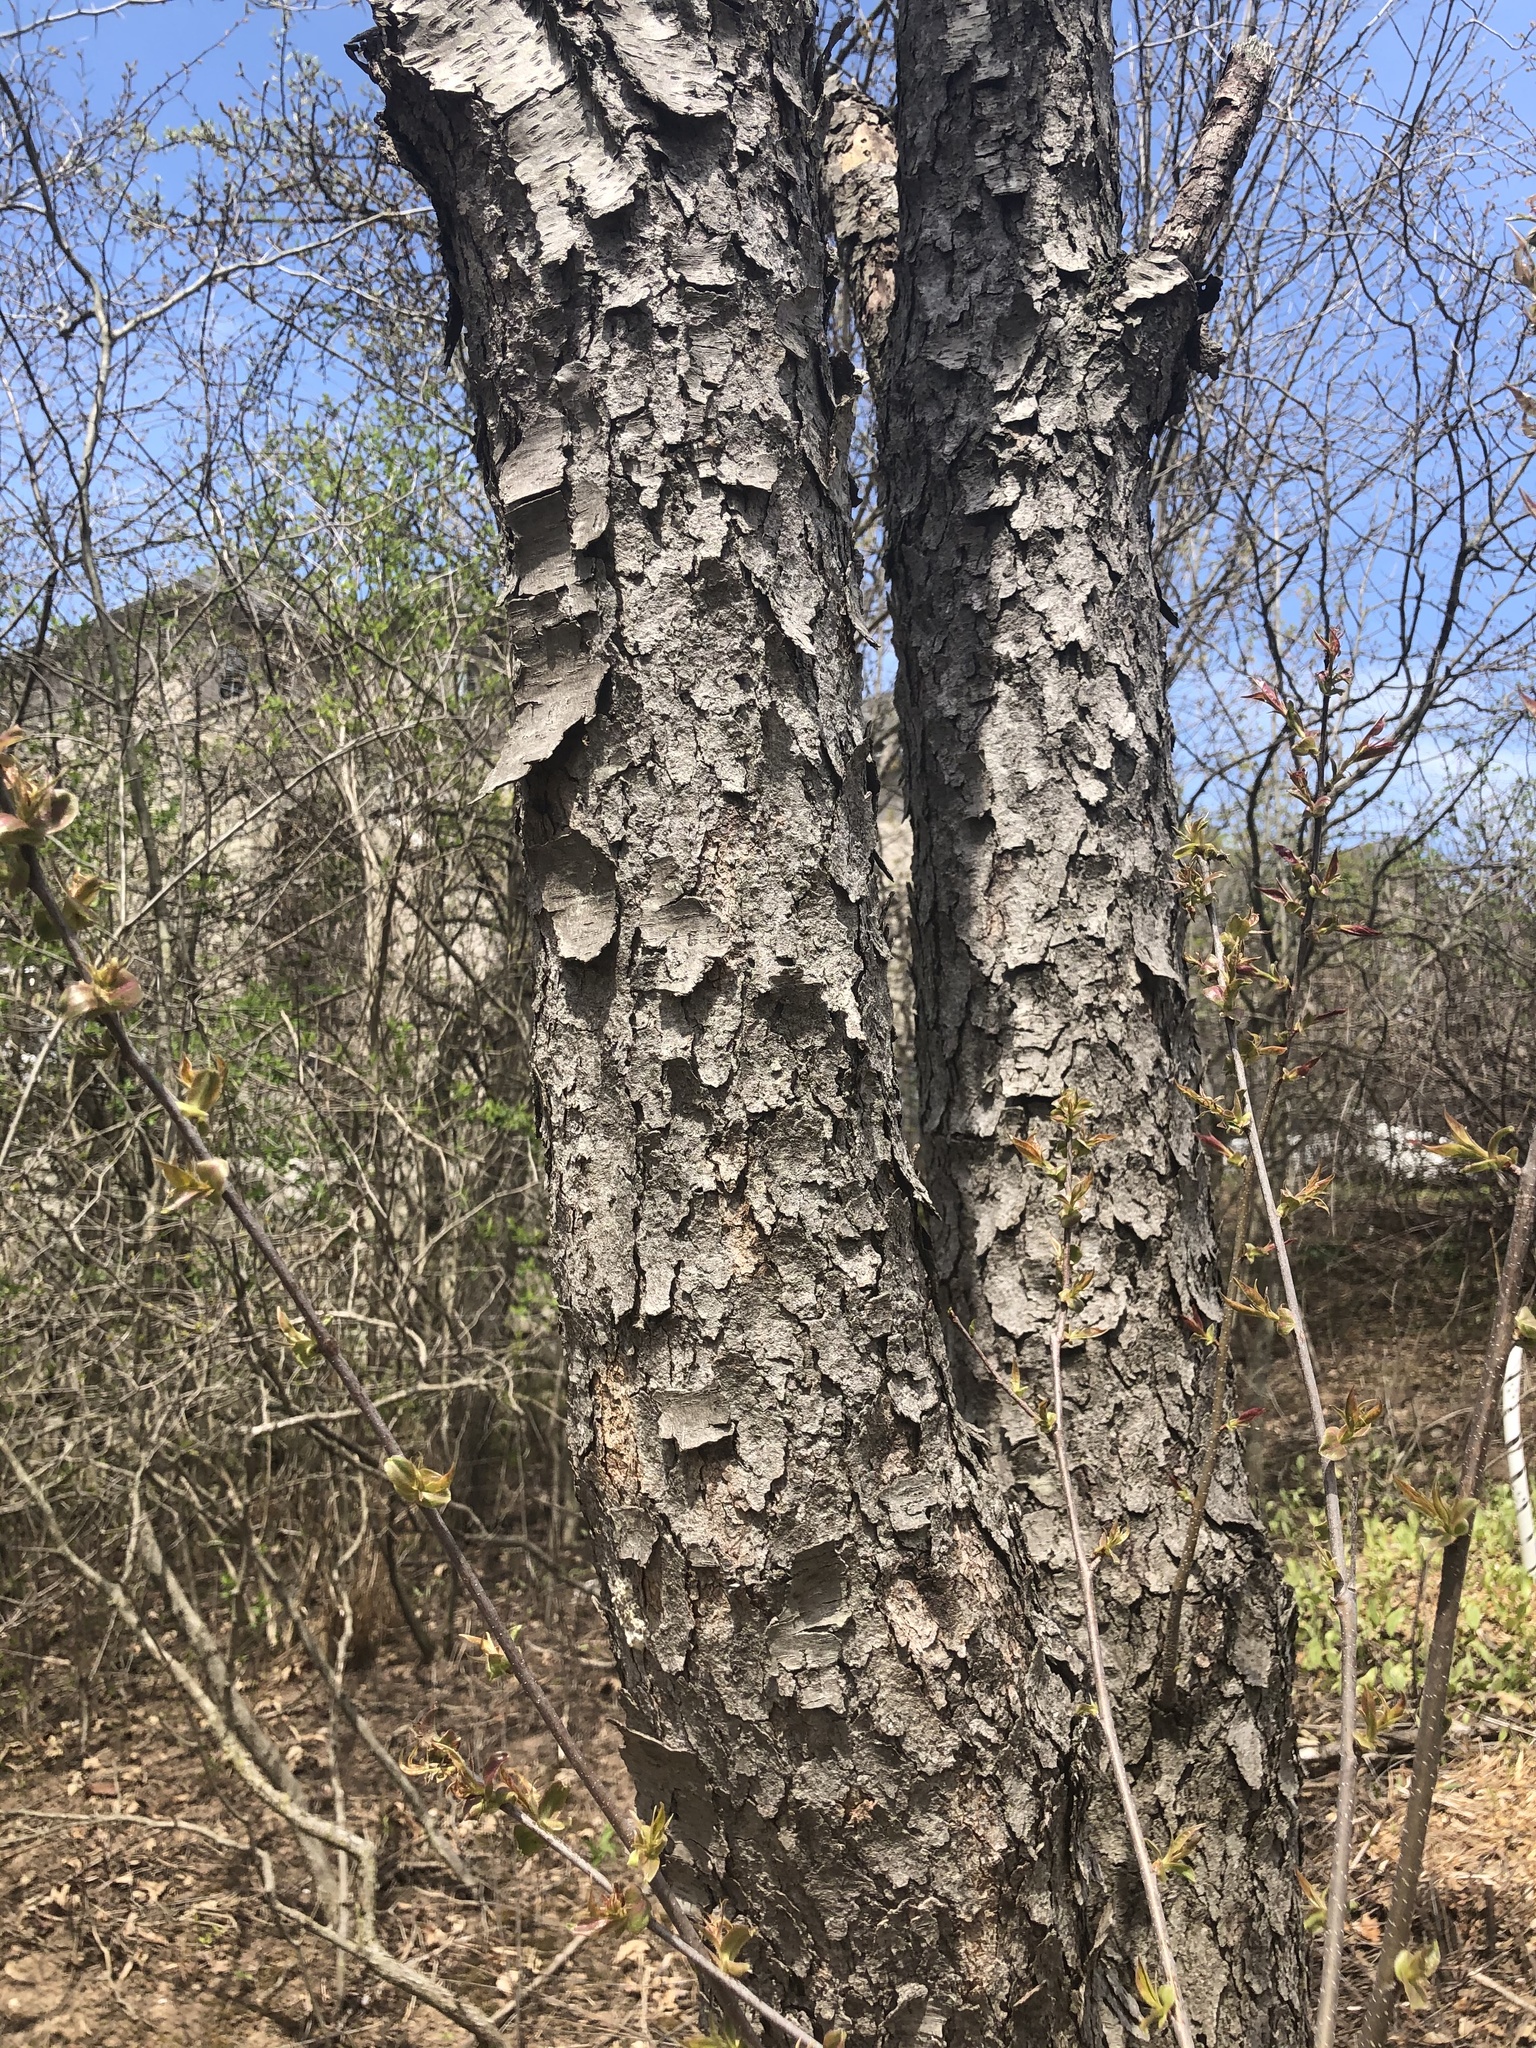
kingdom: Plantae
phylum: Tracheophyta
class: Magnoliopsida
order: Rosales
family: Rosaceae
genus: Prunus
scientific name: Prunus serotina
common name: Black cherry
